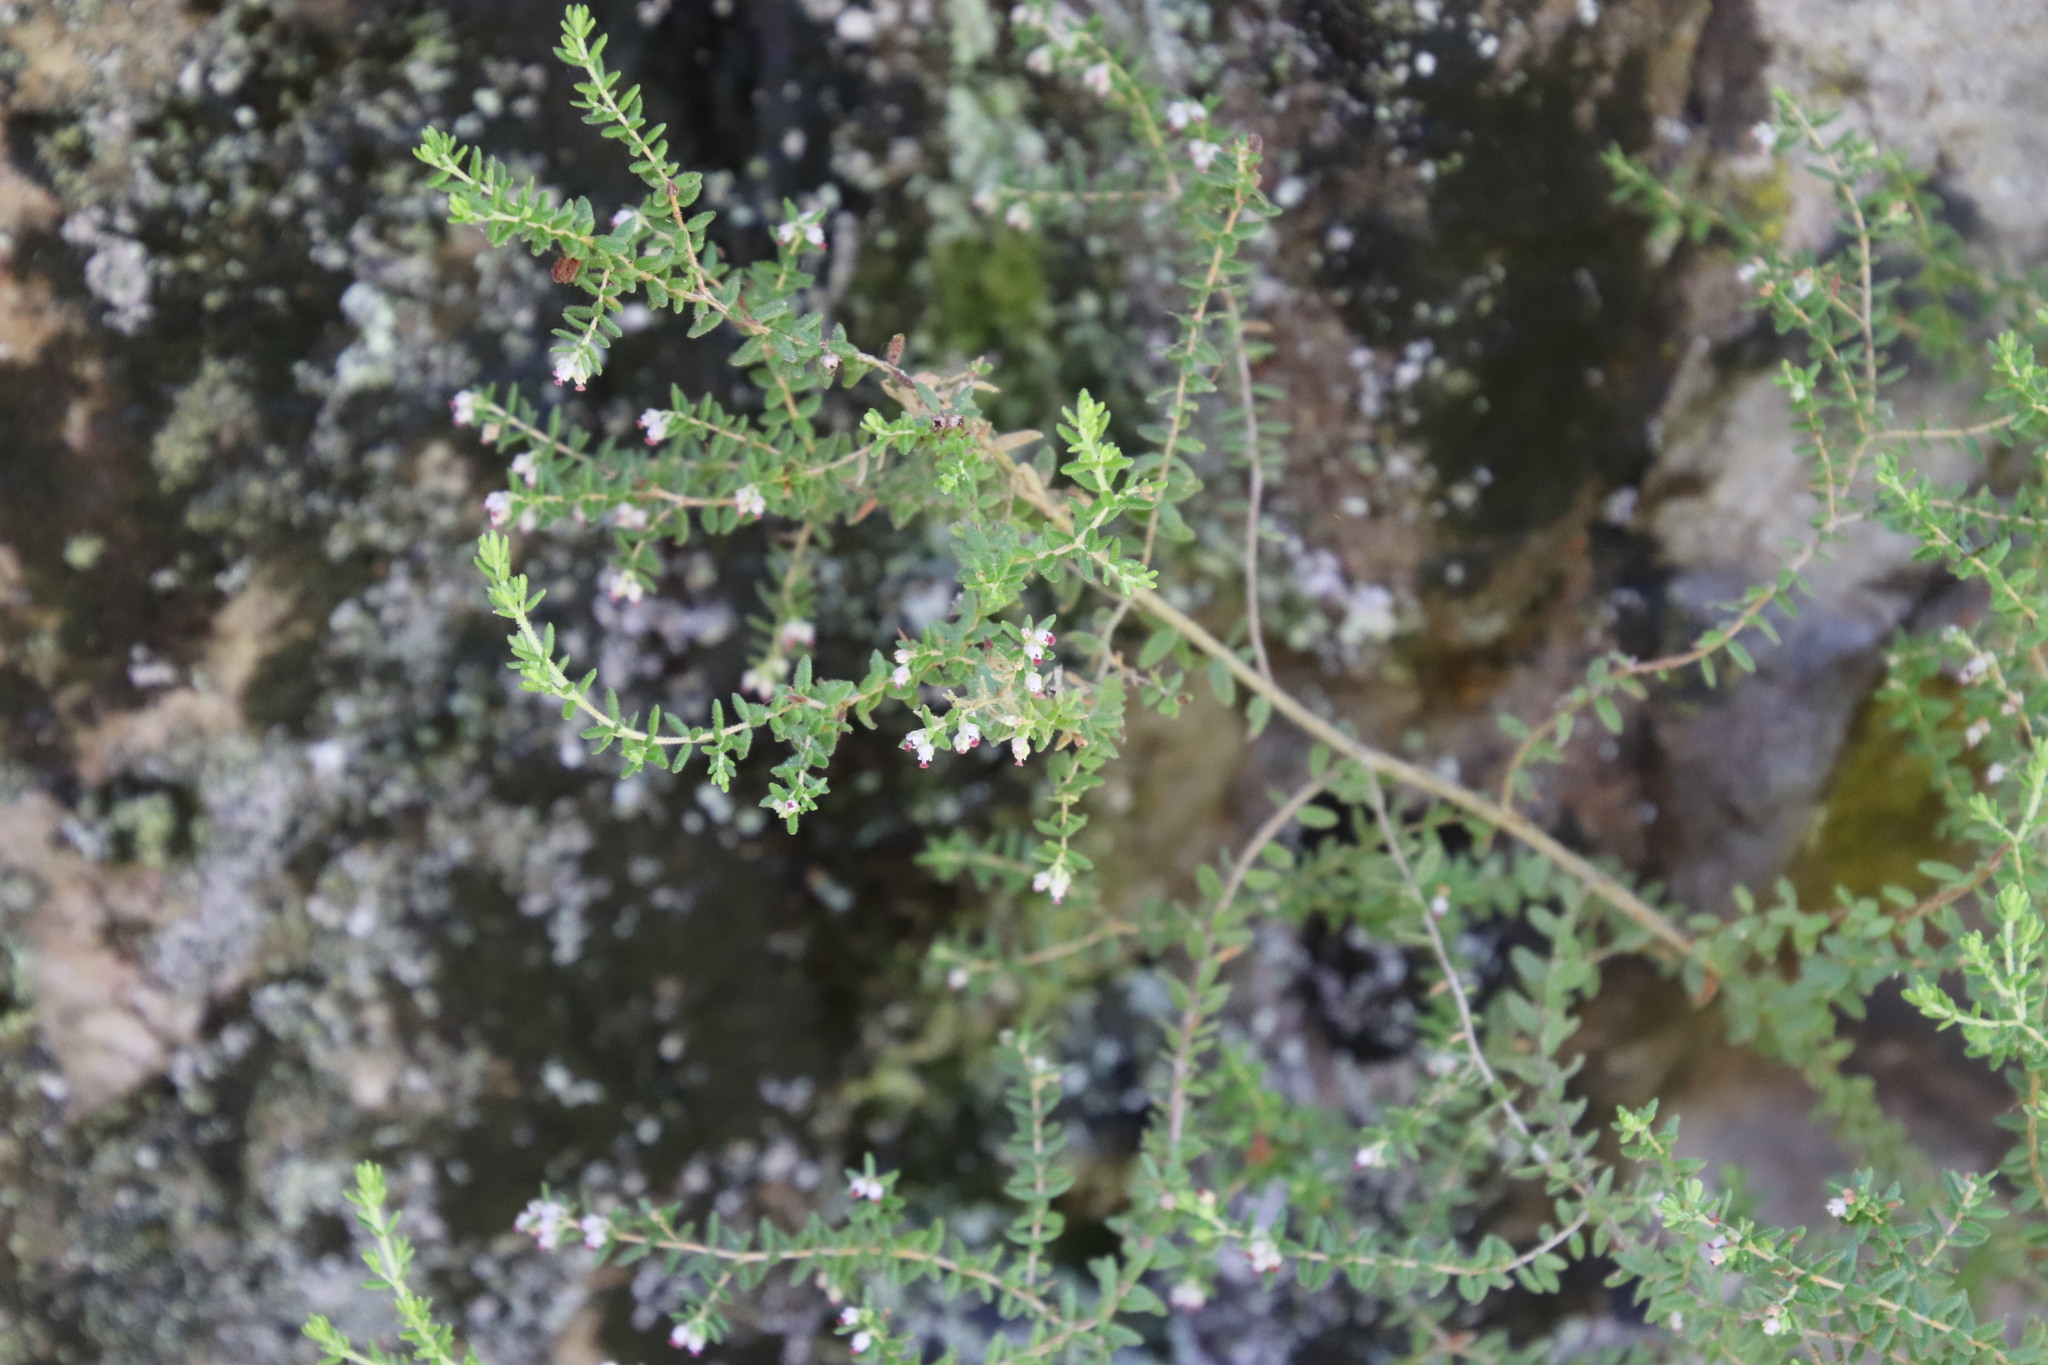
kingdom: Plantae
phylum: Tracheophyta
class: Magnoliopsida
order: Ericales
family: Ericaceae
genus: Erica
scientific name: Erica hispidula
